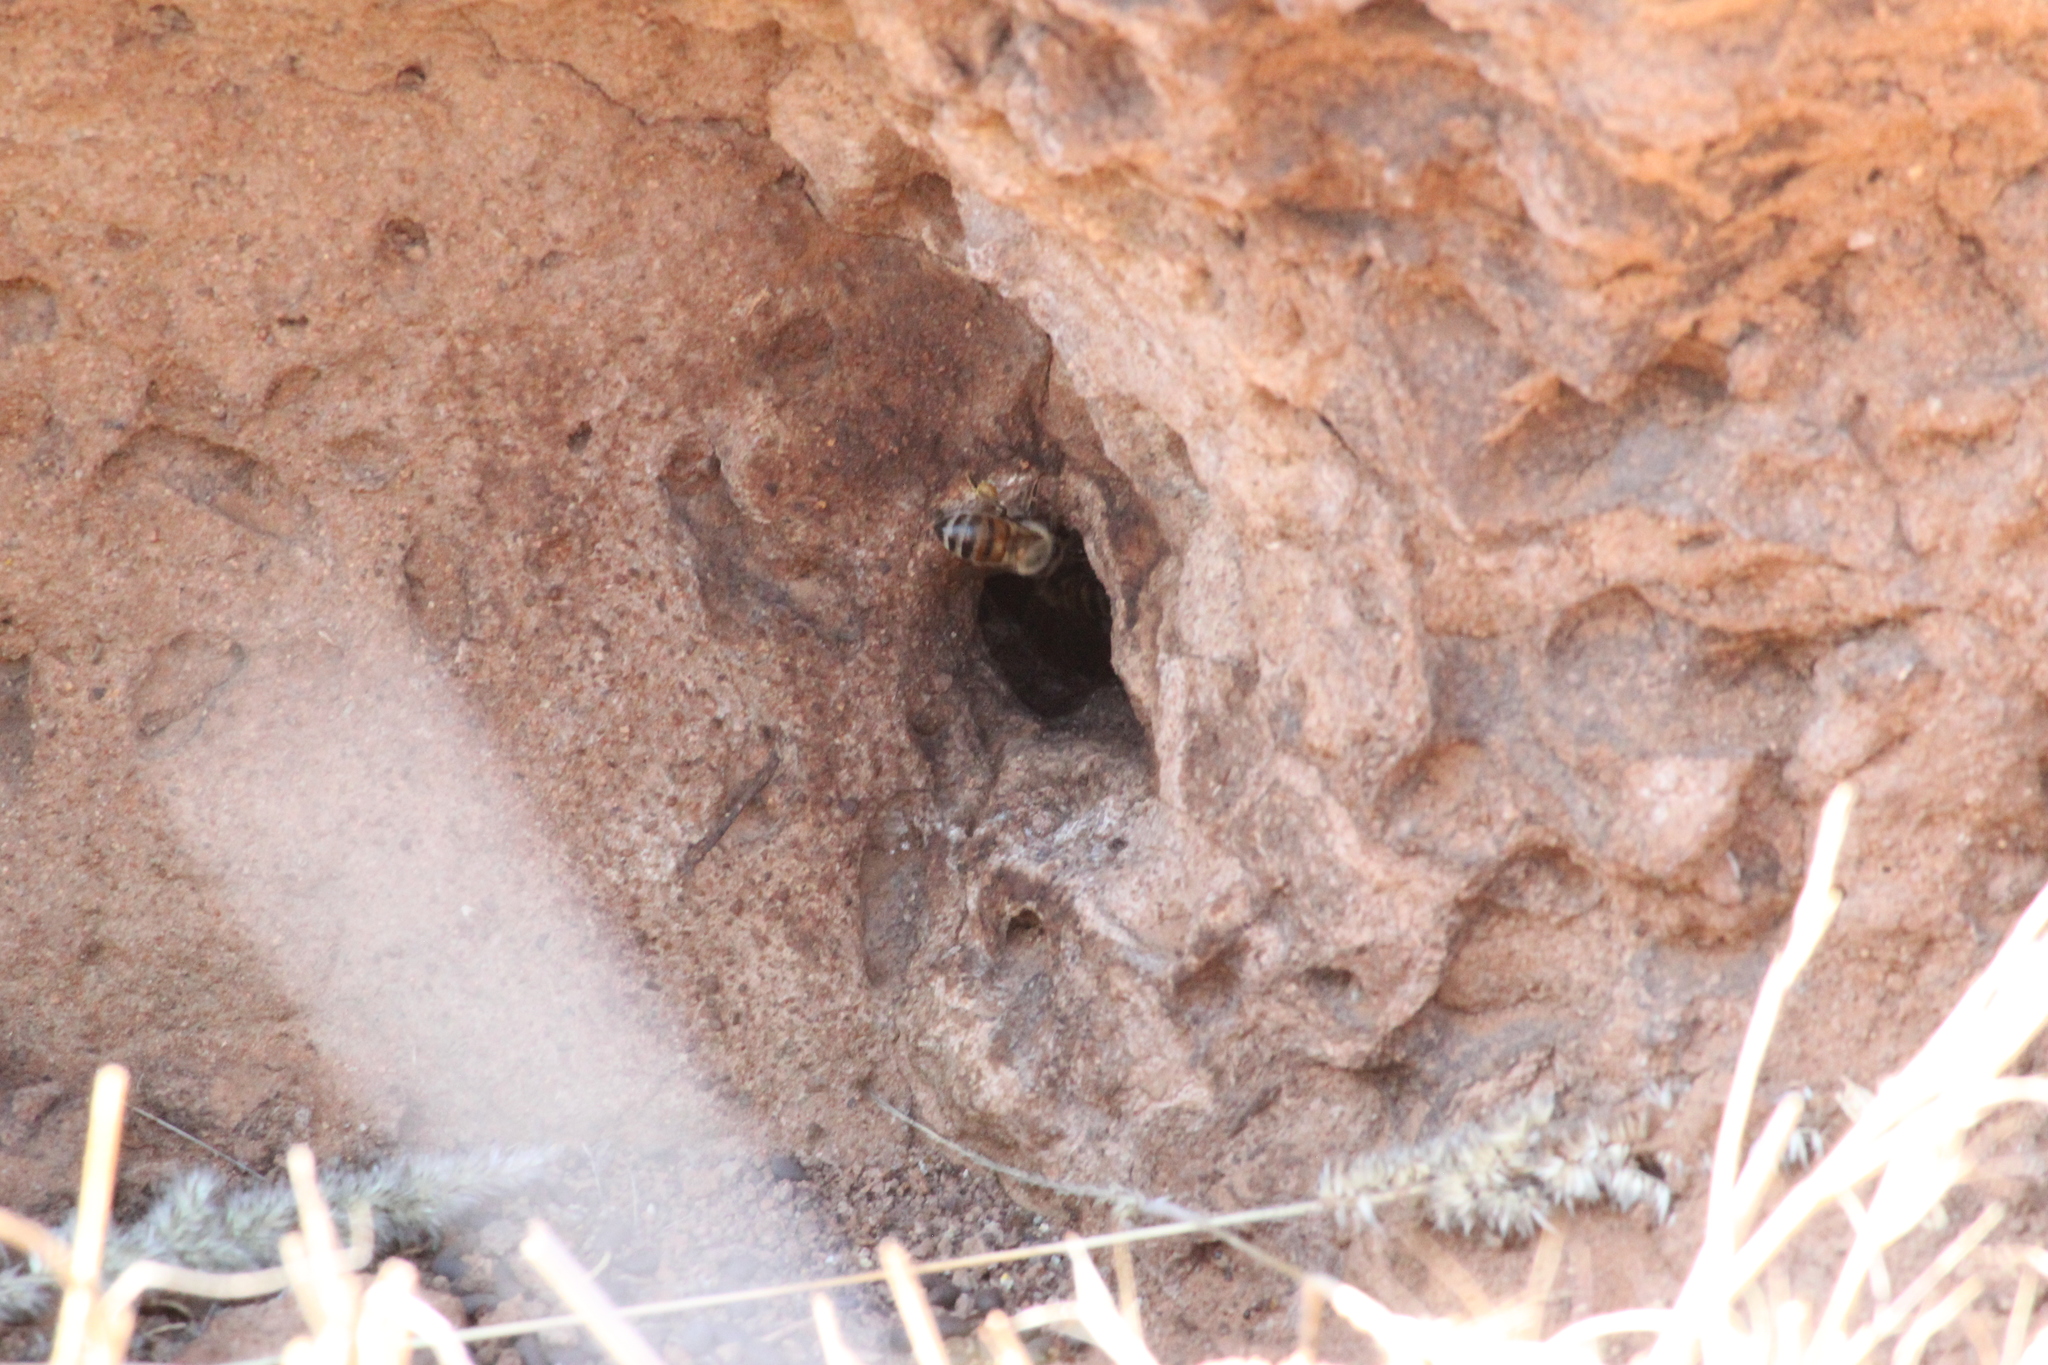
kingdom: Animalia
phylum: Arthropoda
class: Insecta
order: Hymenoptera
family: Apidae
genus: Apis
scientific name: Apis mellifera
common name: Honey bee
